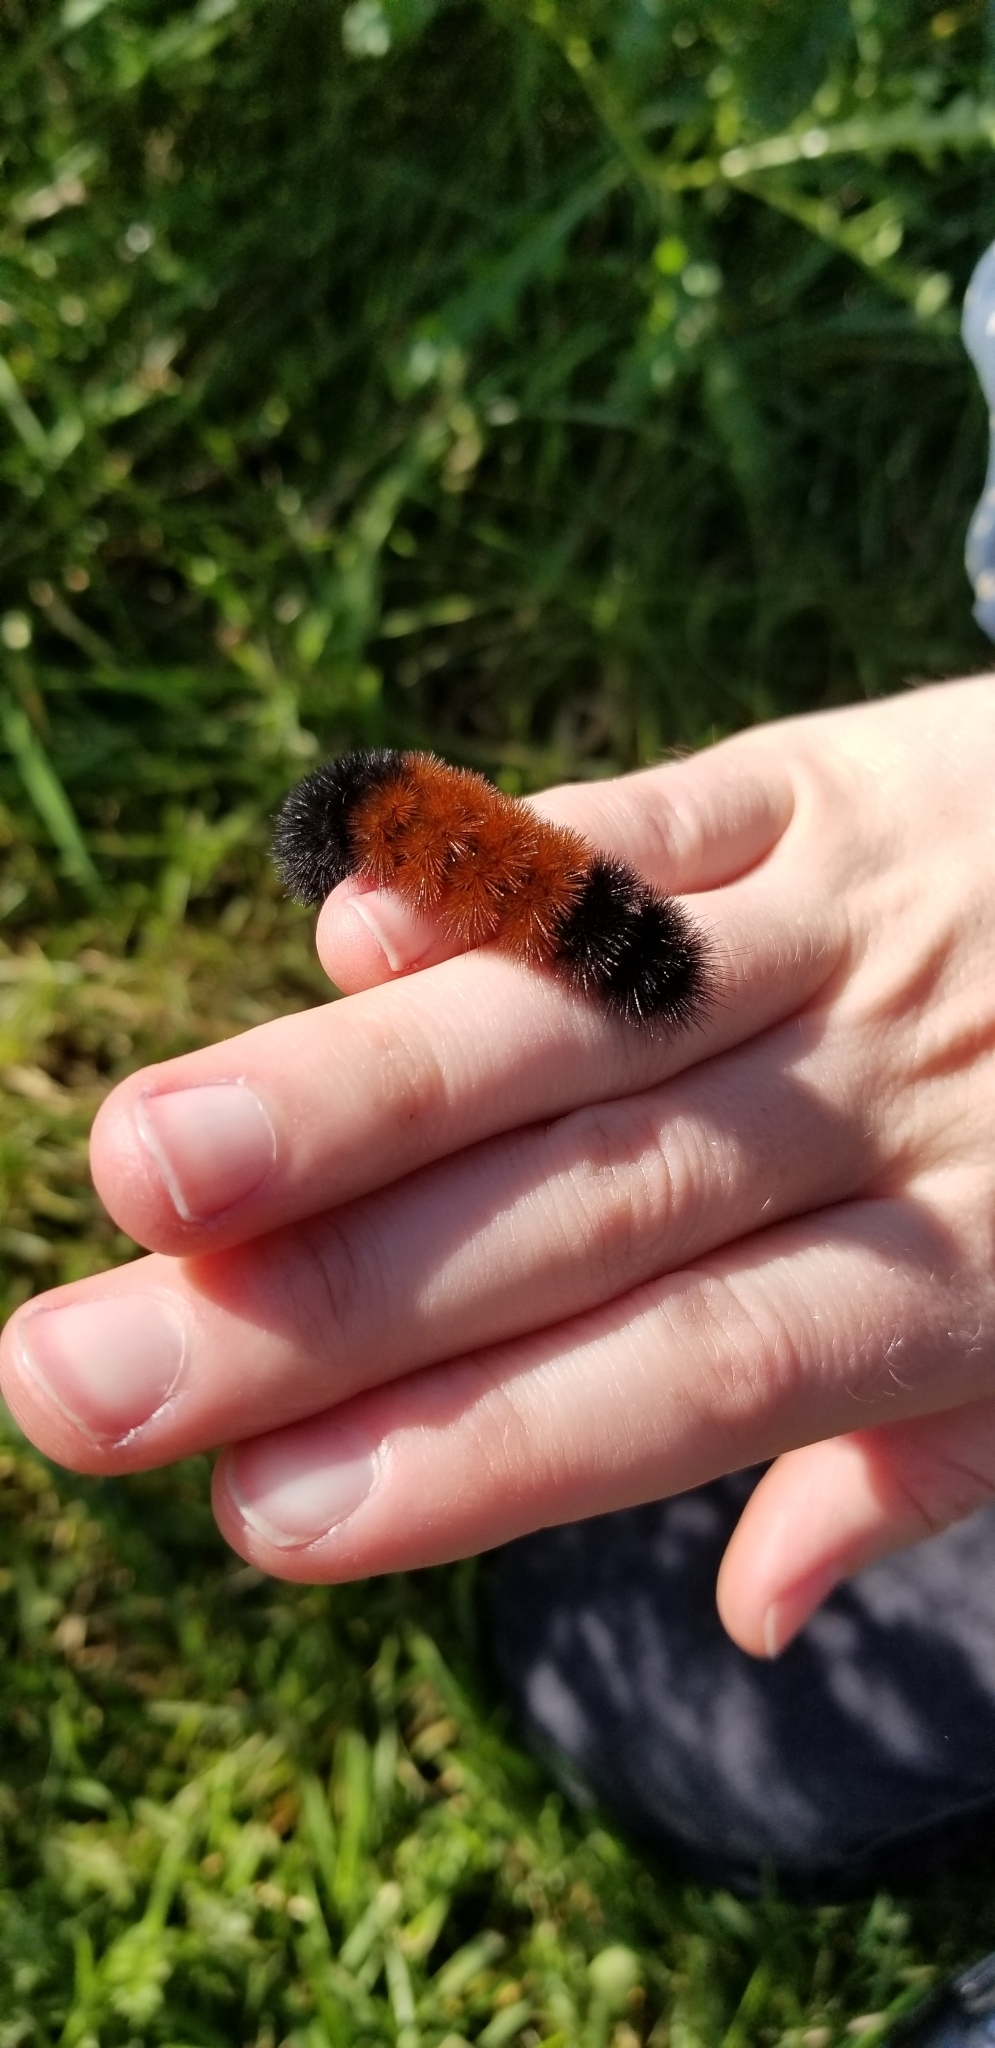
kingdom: Animalia
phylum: Arthropoda
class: Insecta
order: Lepidoptera
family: Erebidae
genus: Pyrrharctia
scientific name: Pyrrharctia isabella
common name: Isabella tiger moth
